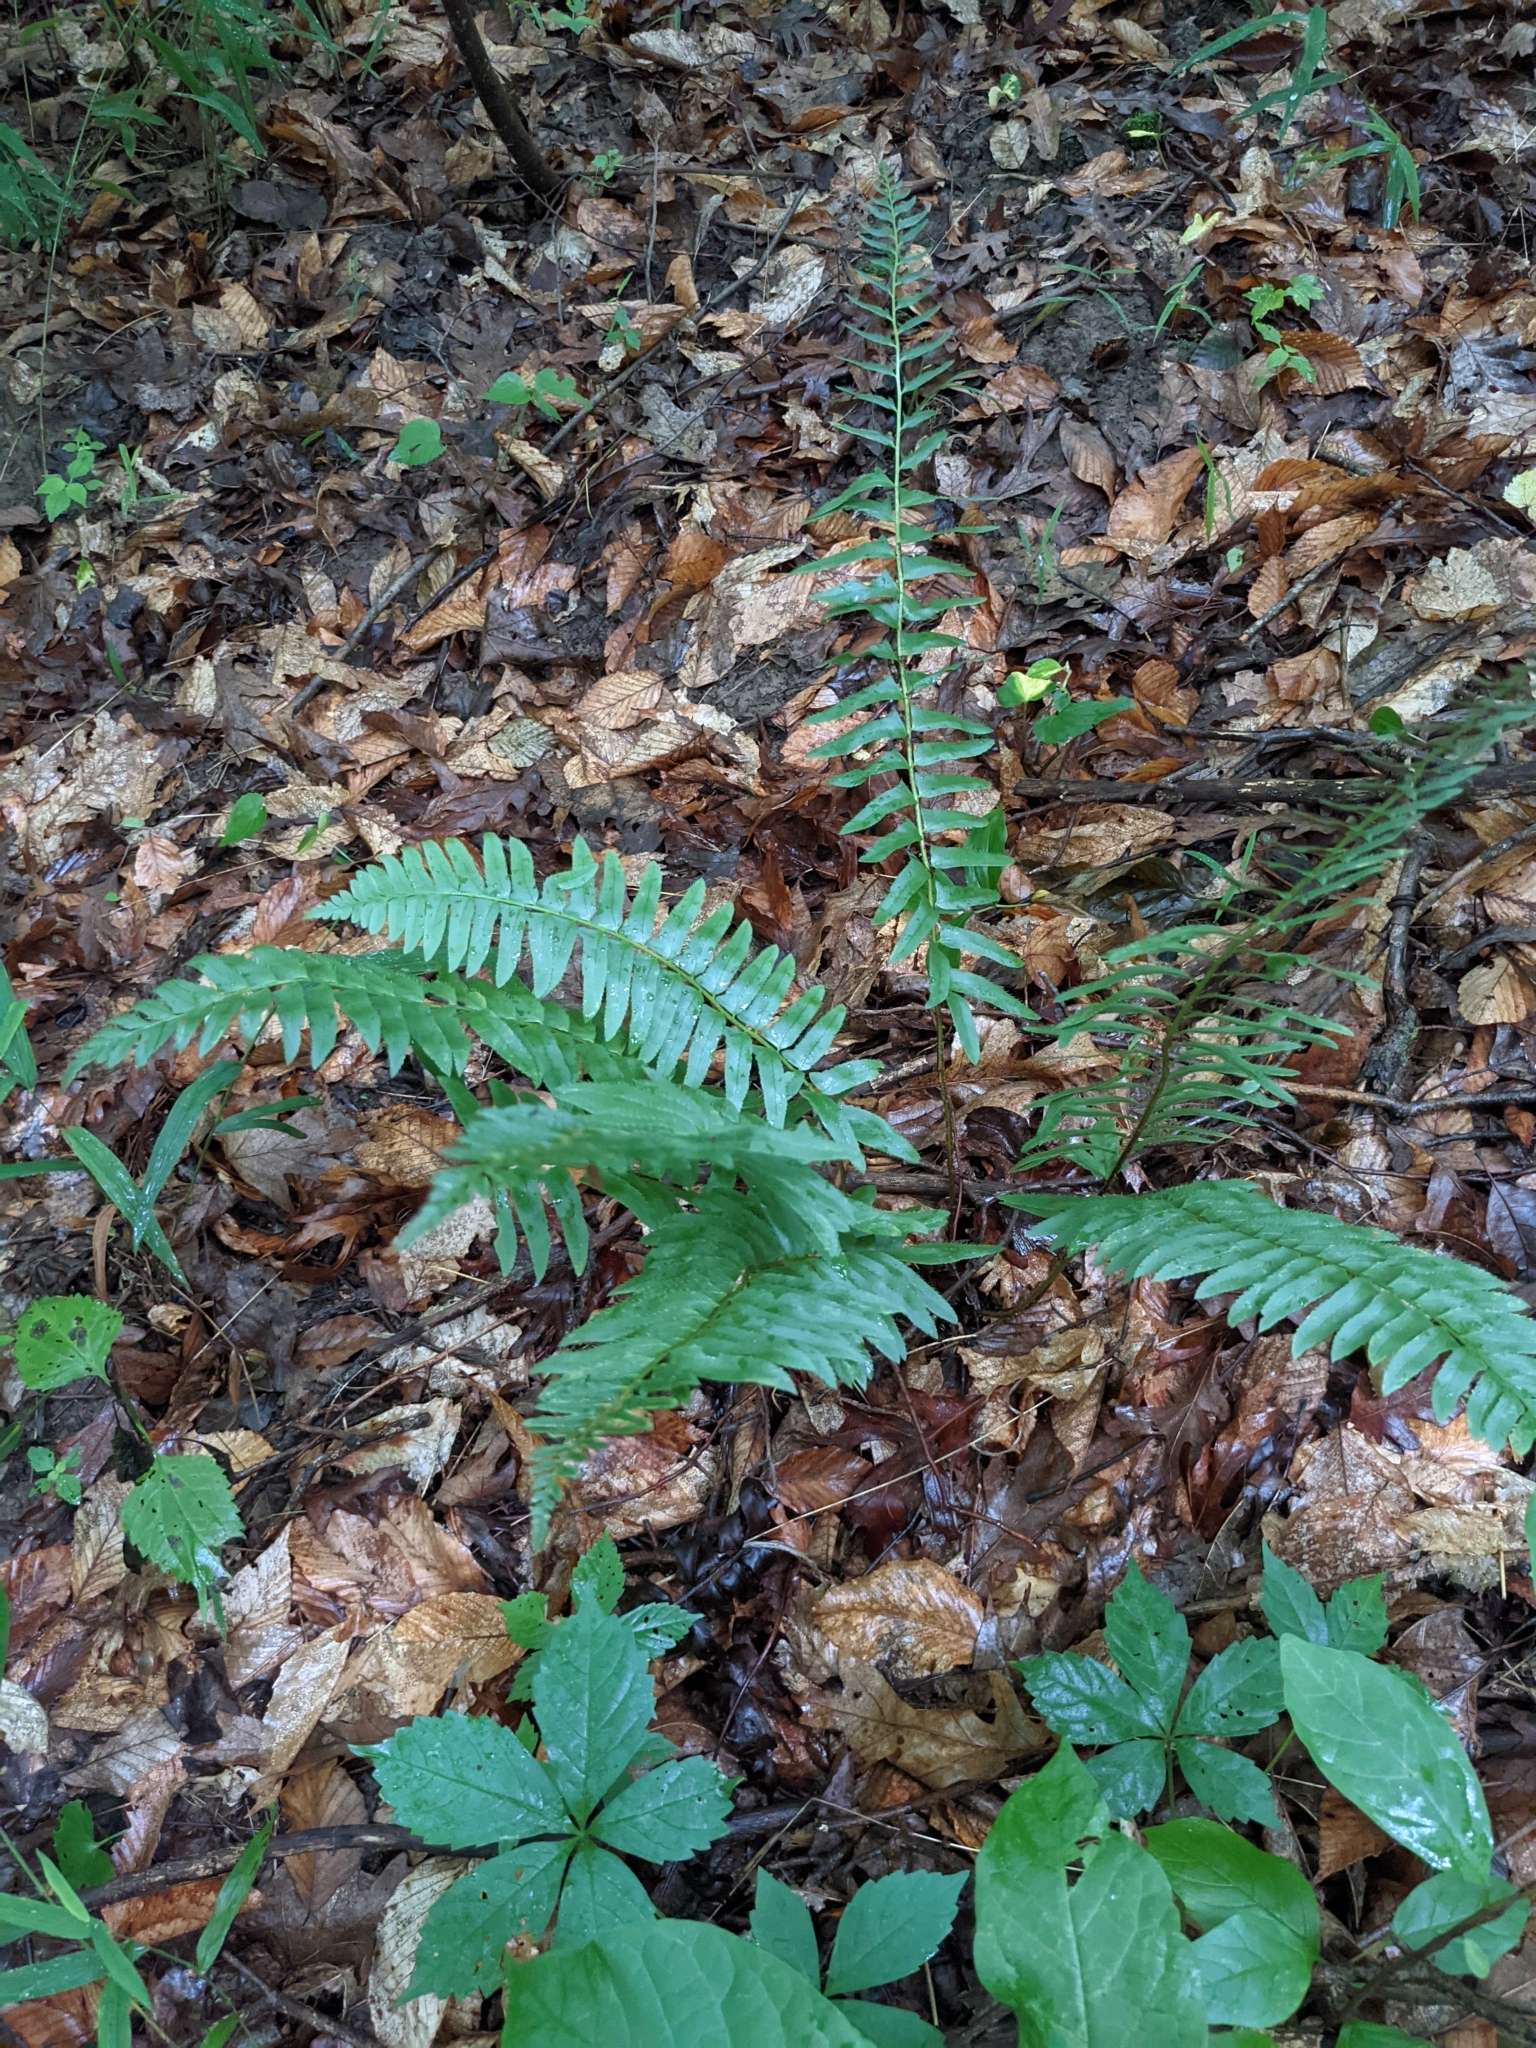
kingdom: Plantae
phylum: Tracheophyta
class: Polypodiopsida
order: Polypodiales
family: Dryopteridaceae
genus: Polystichum
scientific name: Polystichum acrostichoides
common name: Christmas fern
